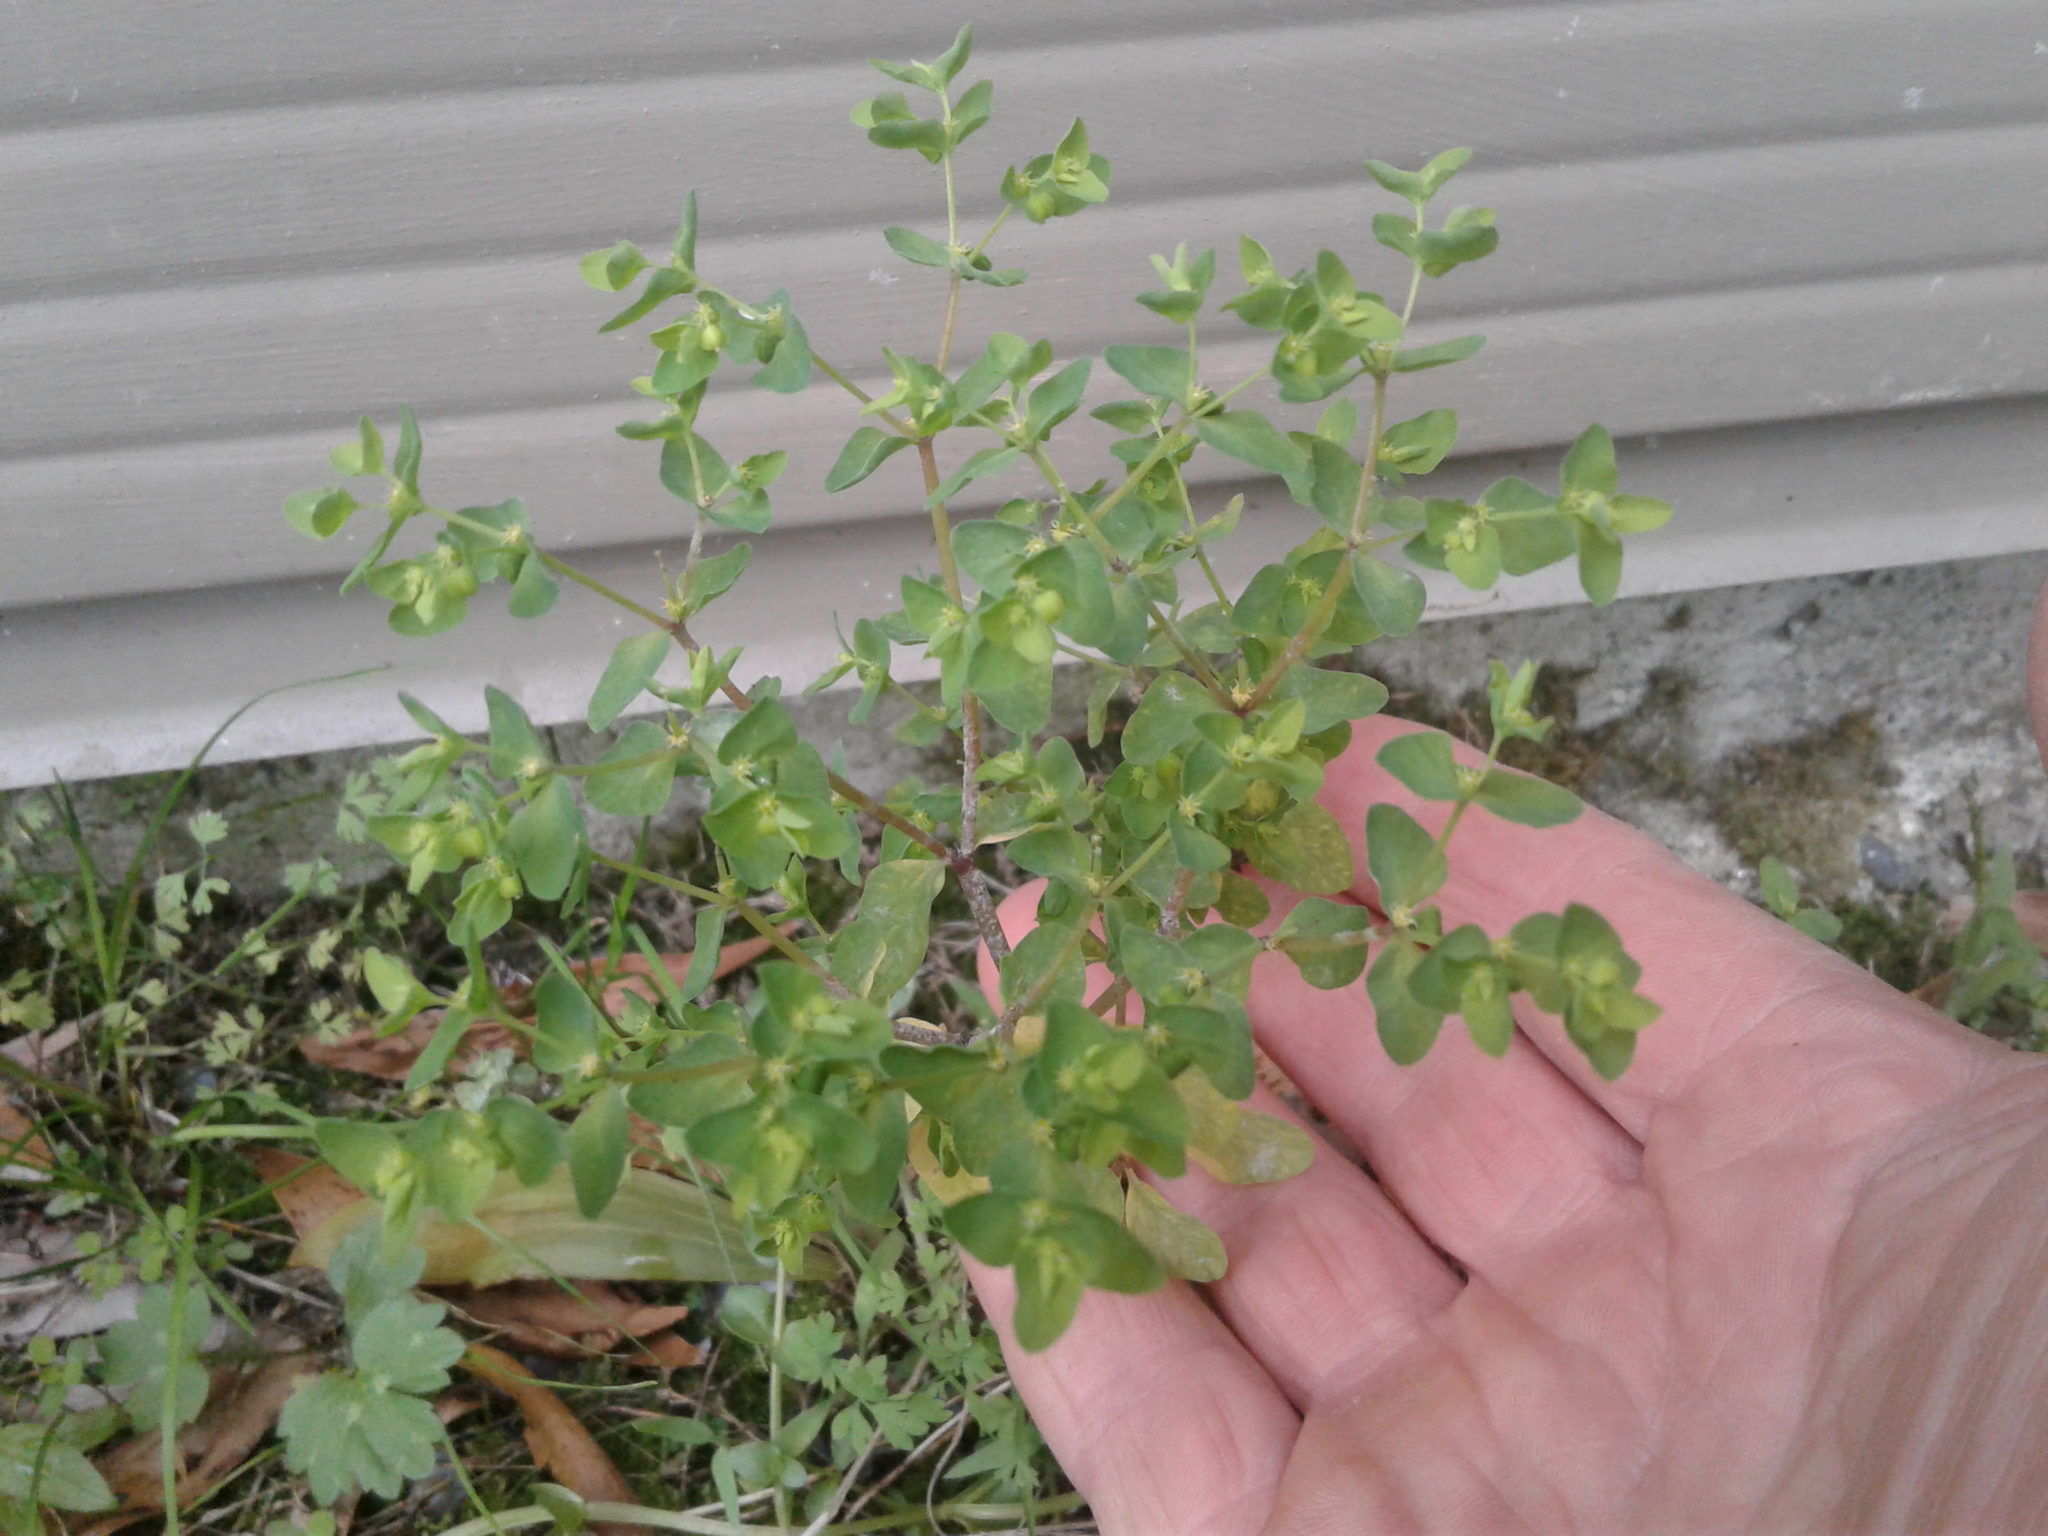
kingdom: Plantae
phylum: Tracheophyta
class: Magnoliopsida
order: Malpighiales
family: Euphorbiaceae
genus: Euphorbia
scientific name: Euphorbia peplus
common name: Petty spurge
